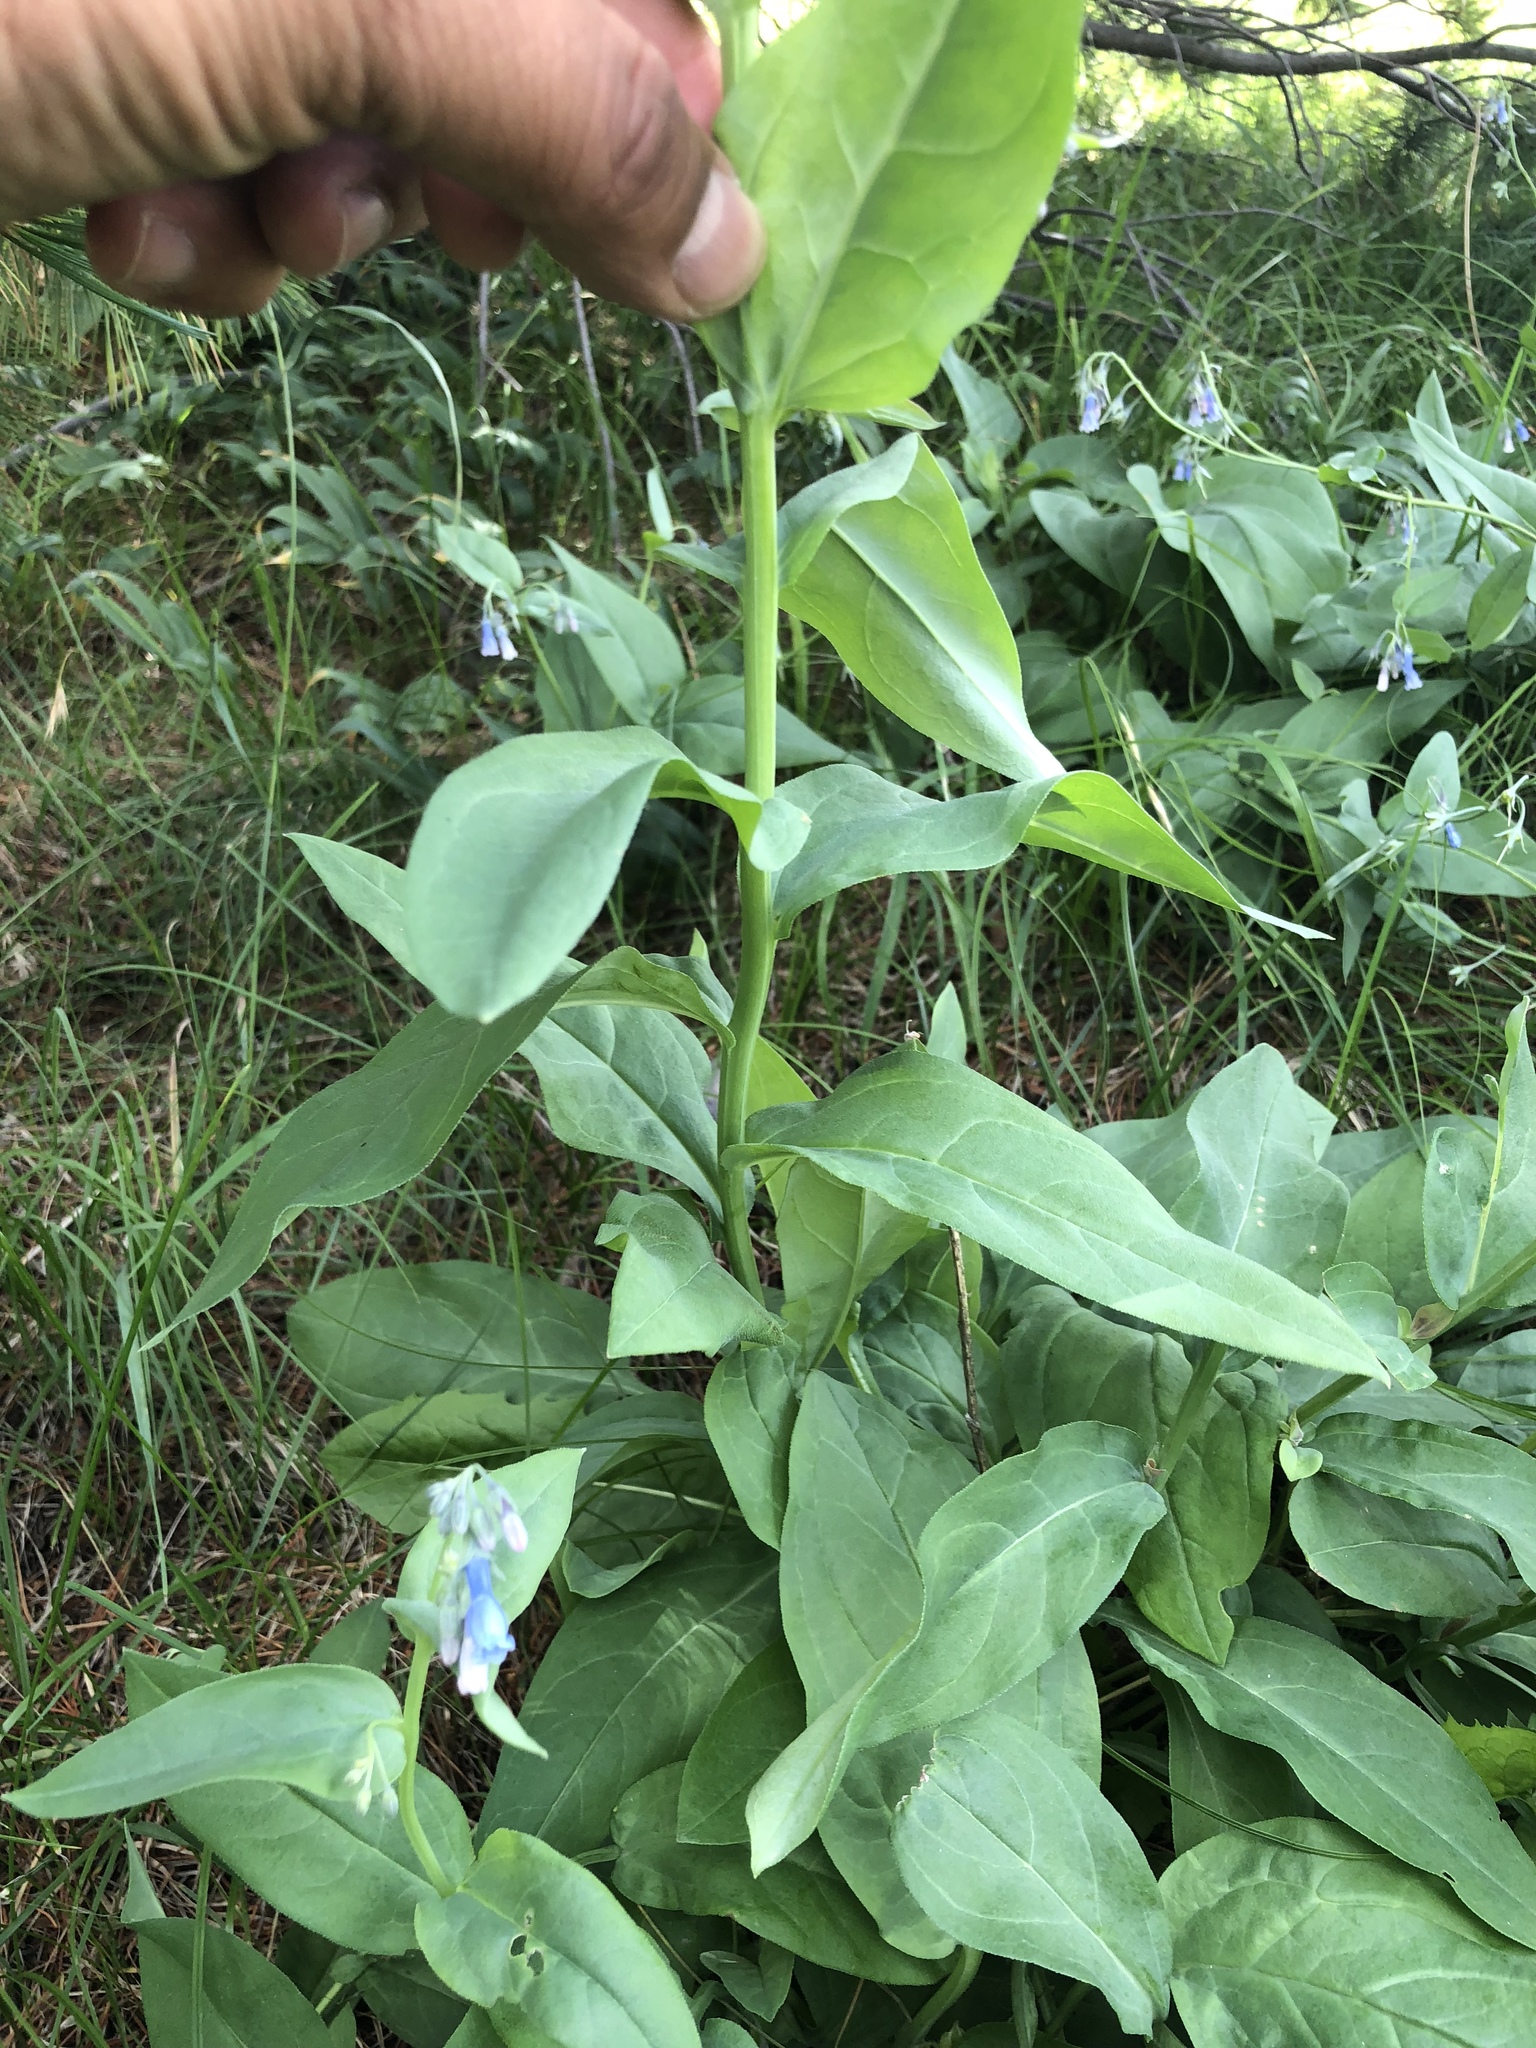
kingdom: Plantae
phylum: Tracheophyta
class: Magnoliopsida
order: Boraginales
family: Boraginaceae
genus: Mertensia
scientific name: Mertensia franciscana
